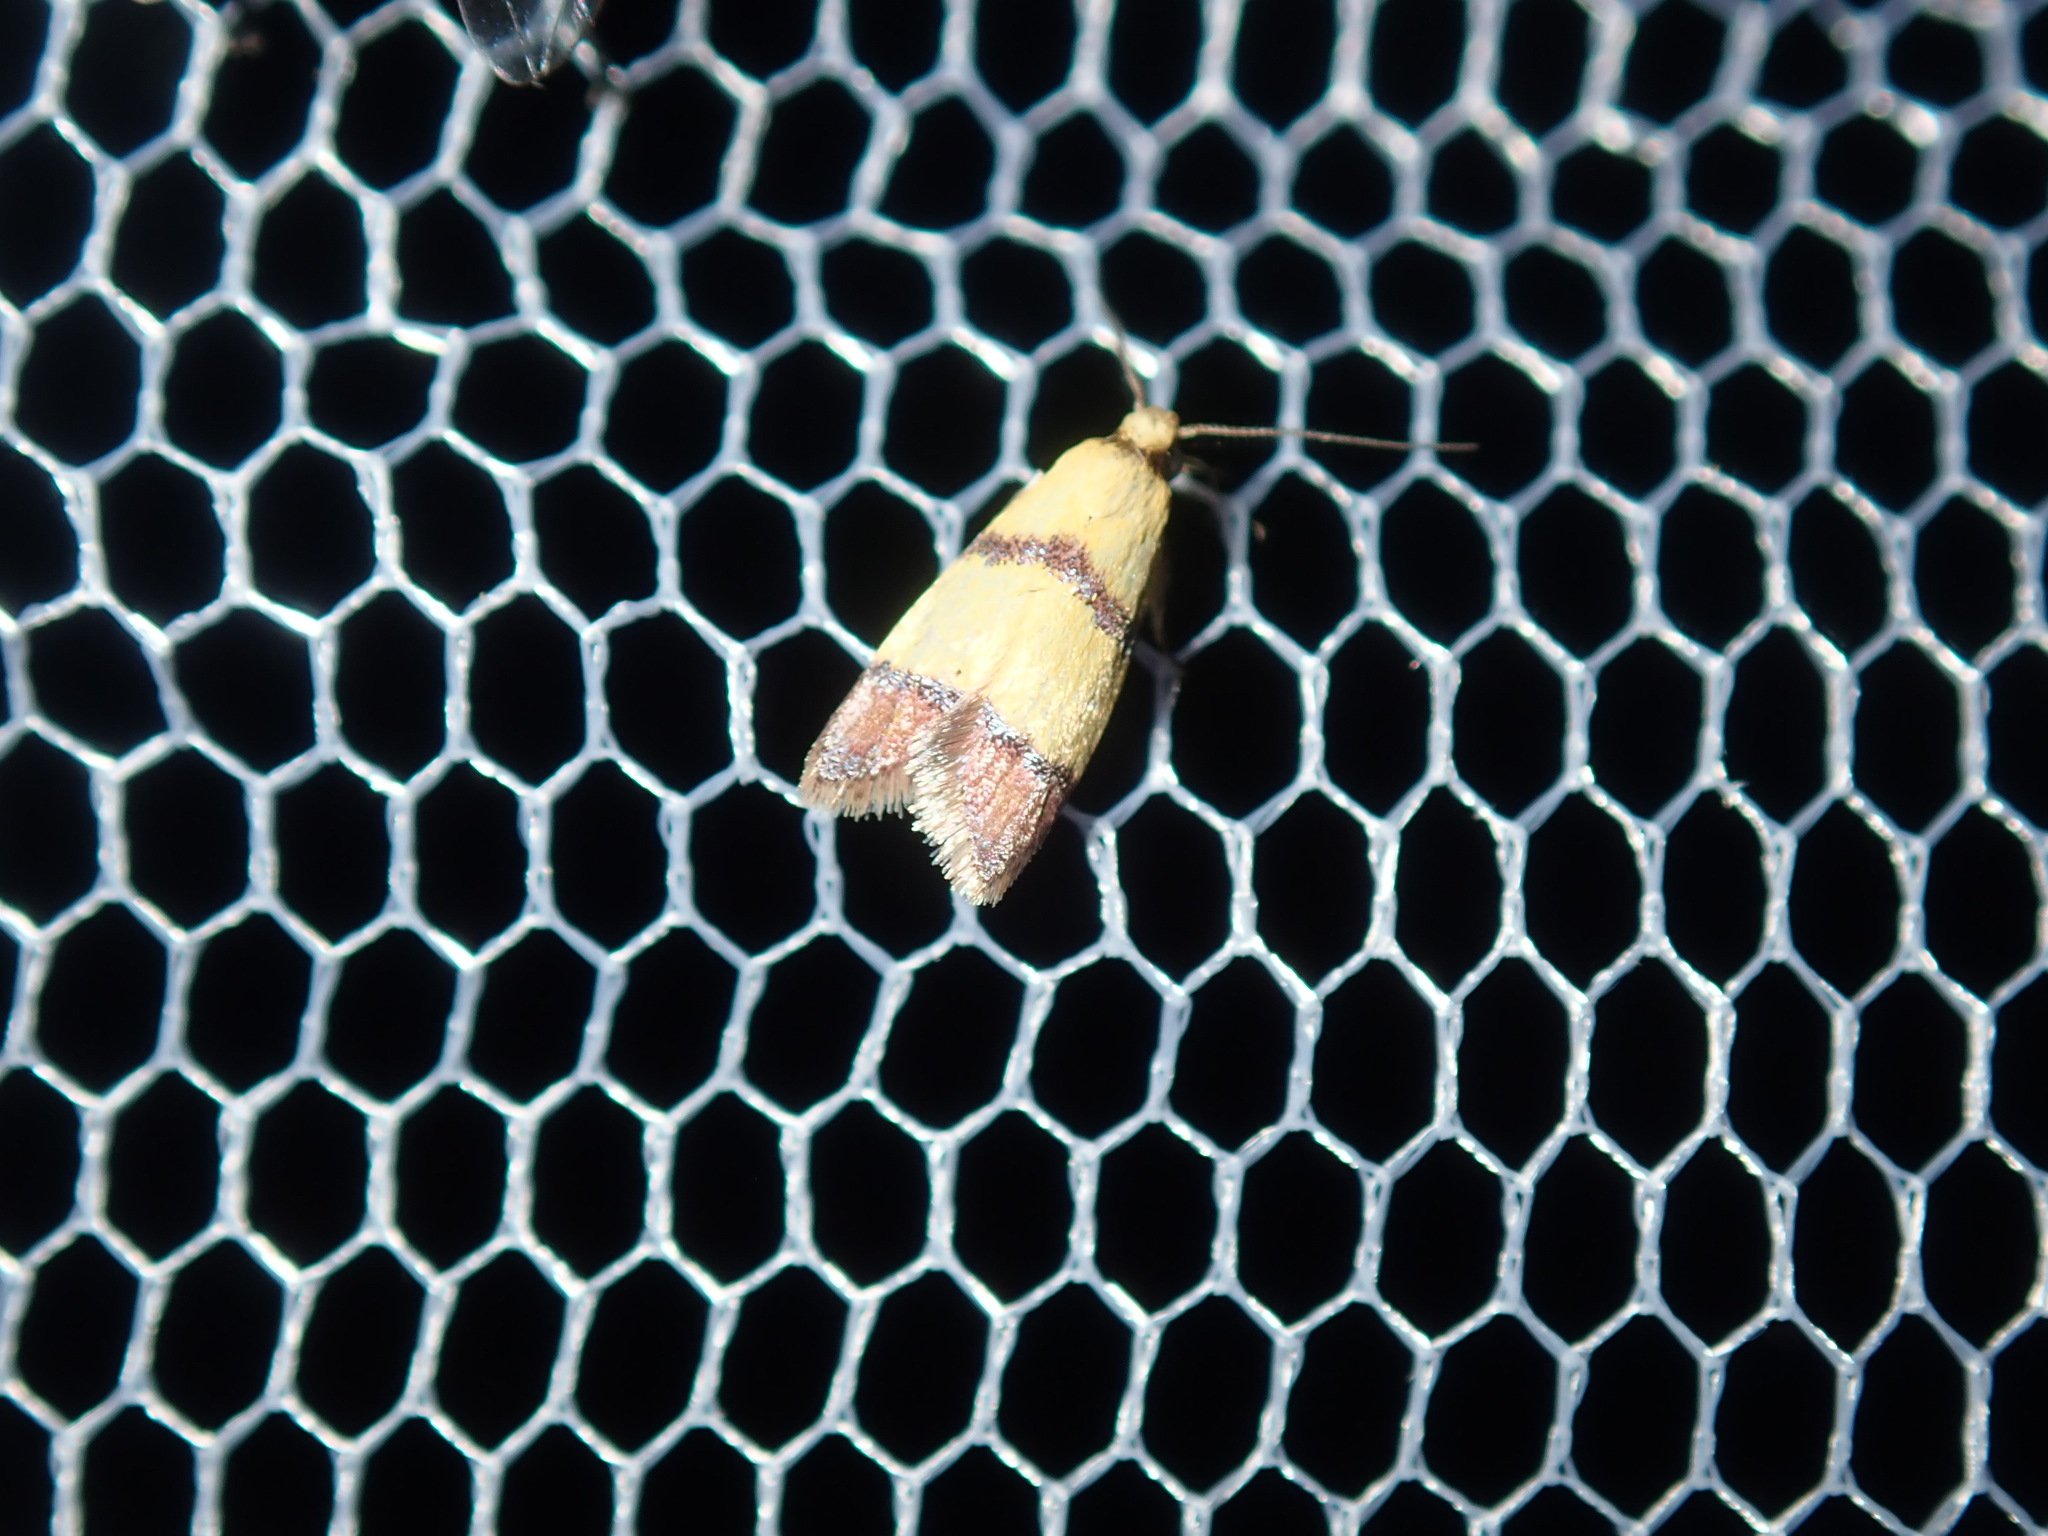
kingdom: Animalia
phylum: Arthropoda
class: Insecta
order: Lepidoptera
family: Oecophoridae
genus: Heteroteucha
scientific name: Heteroteucha distephana
